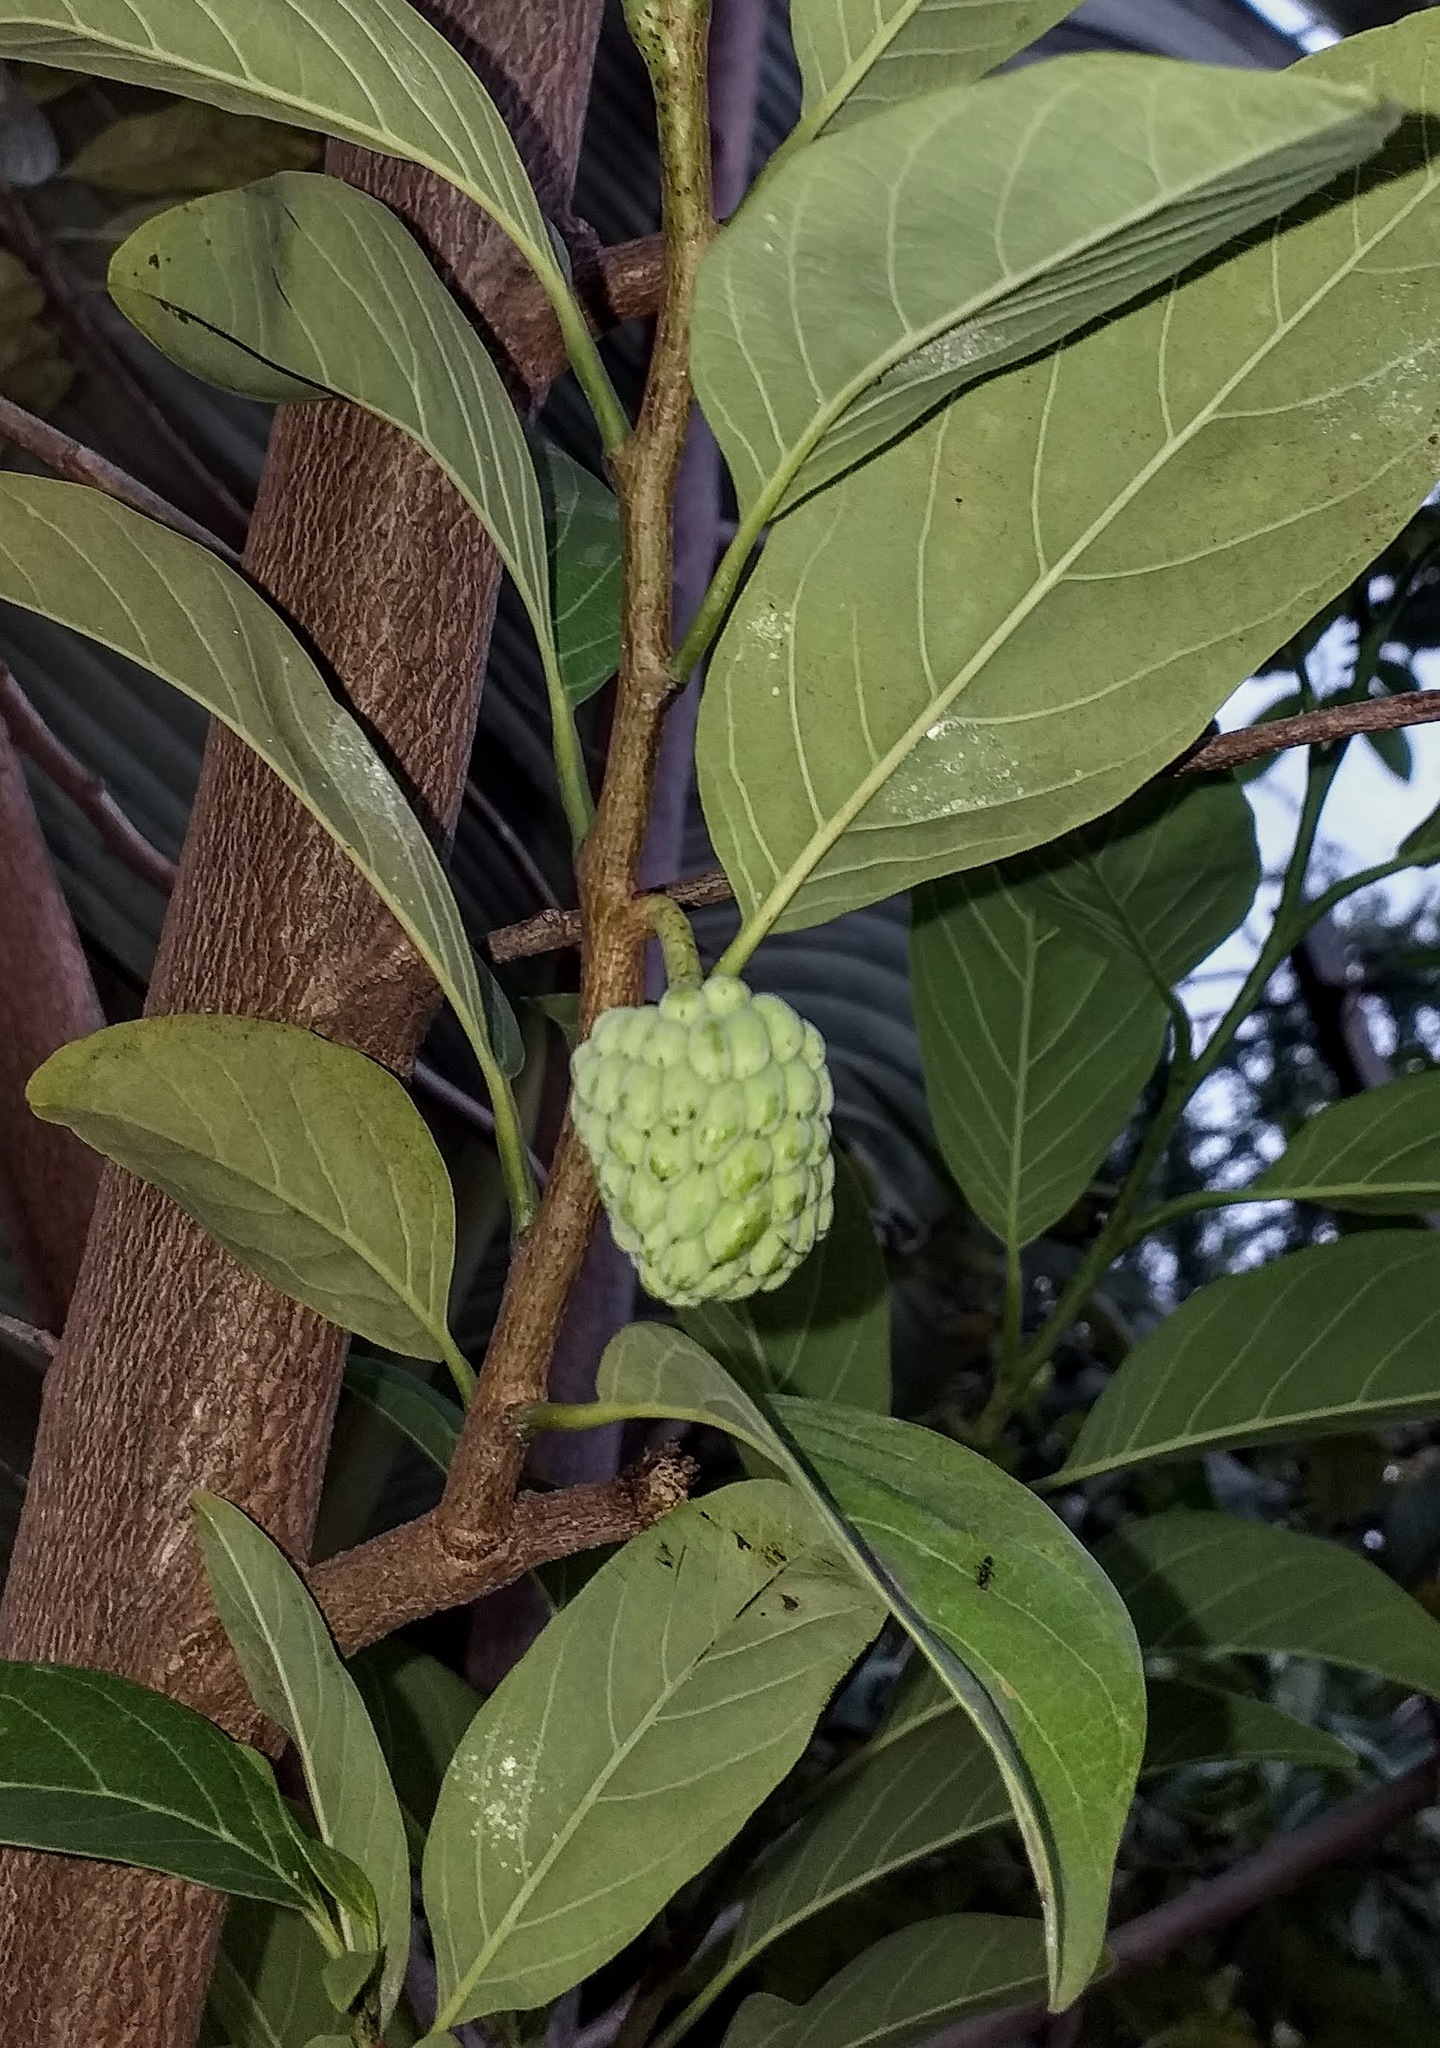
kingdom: Plantae
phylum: Tracheophyta
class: Magnoliopsida
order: Magnoliales
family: Annonaceae
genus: Annona
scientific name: Annona squamosa
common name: Custard-apple
